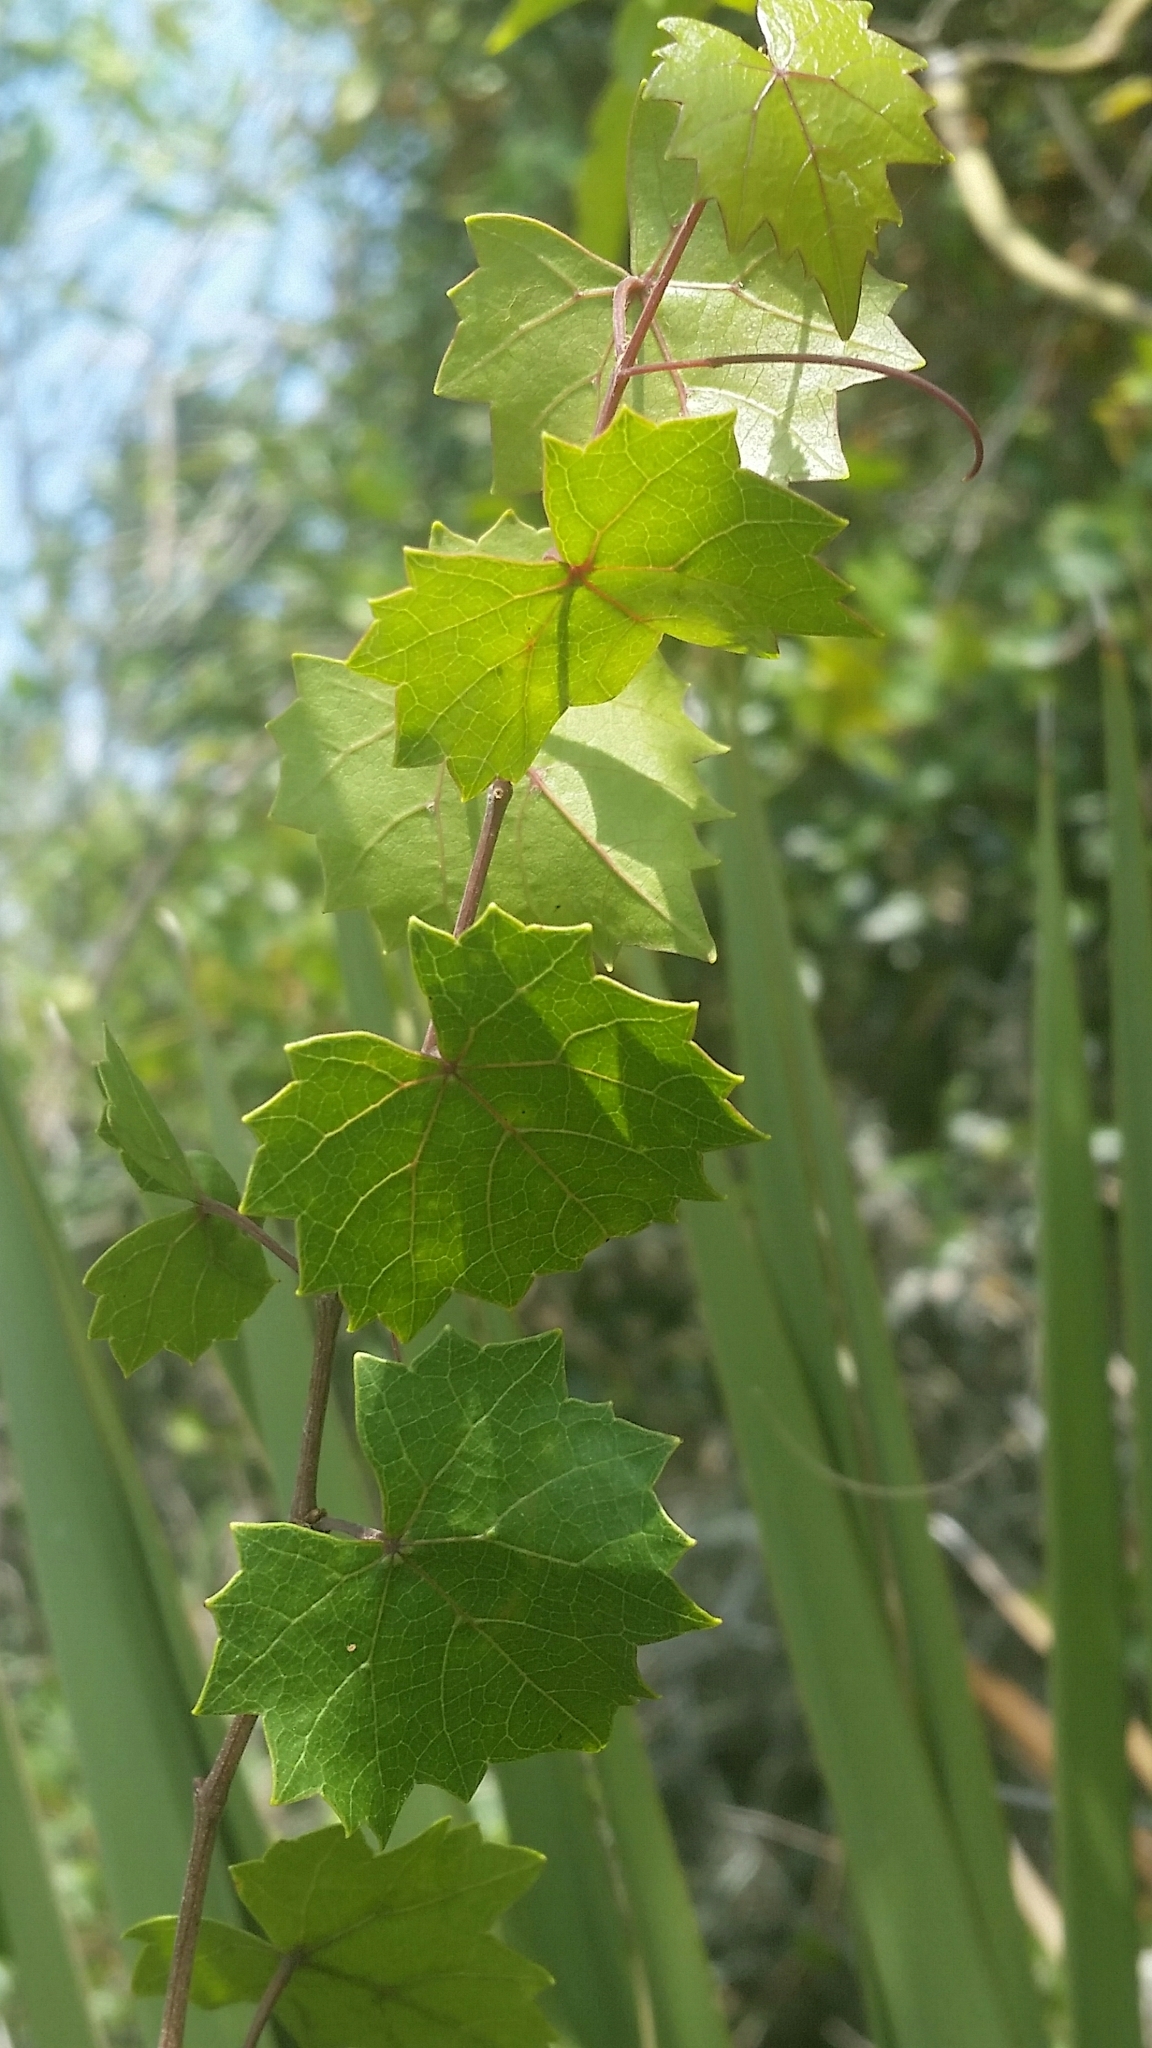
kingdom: Plantae
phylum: Tracheophyta
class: Magnoliopsida
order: Vitales
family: Vitaceae
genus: Vitis
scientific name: Vitis rotundifolia
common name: Muscadine grape
